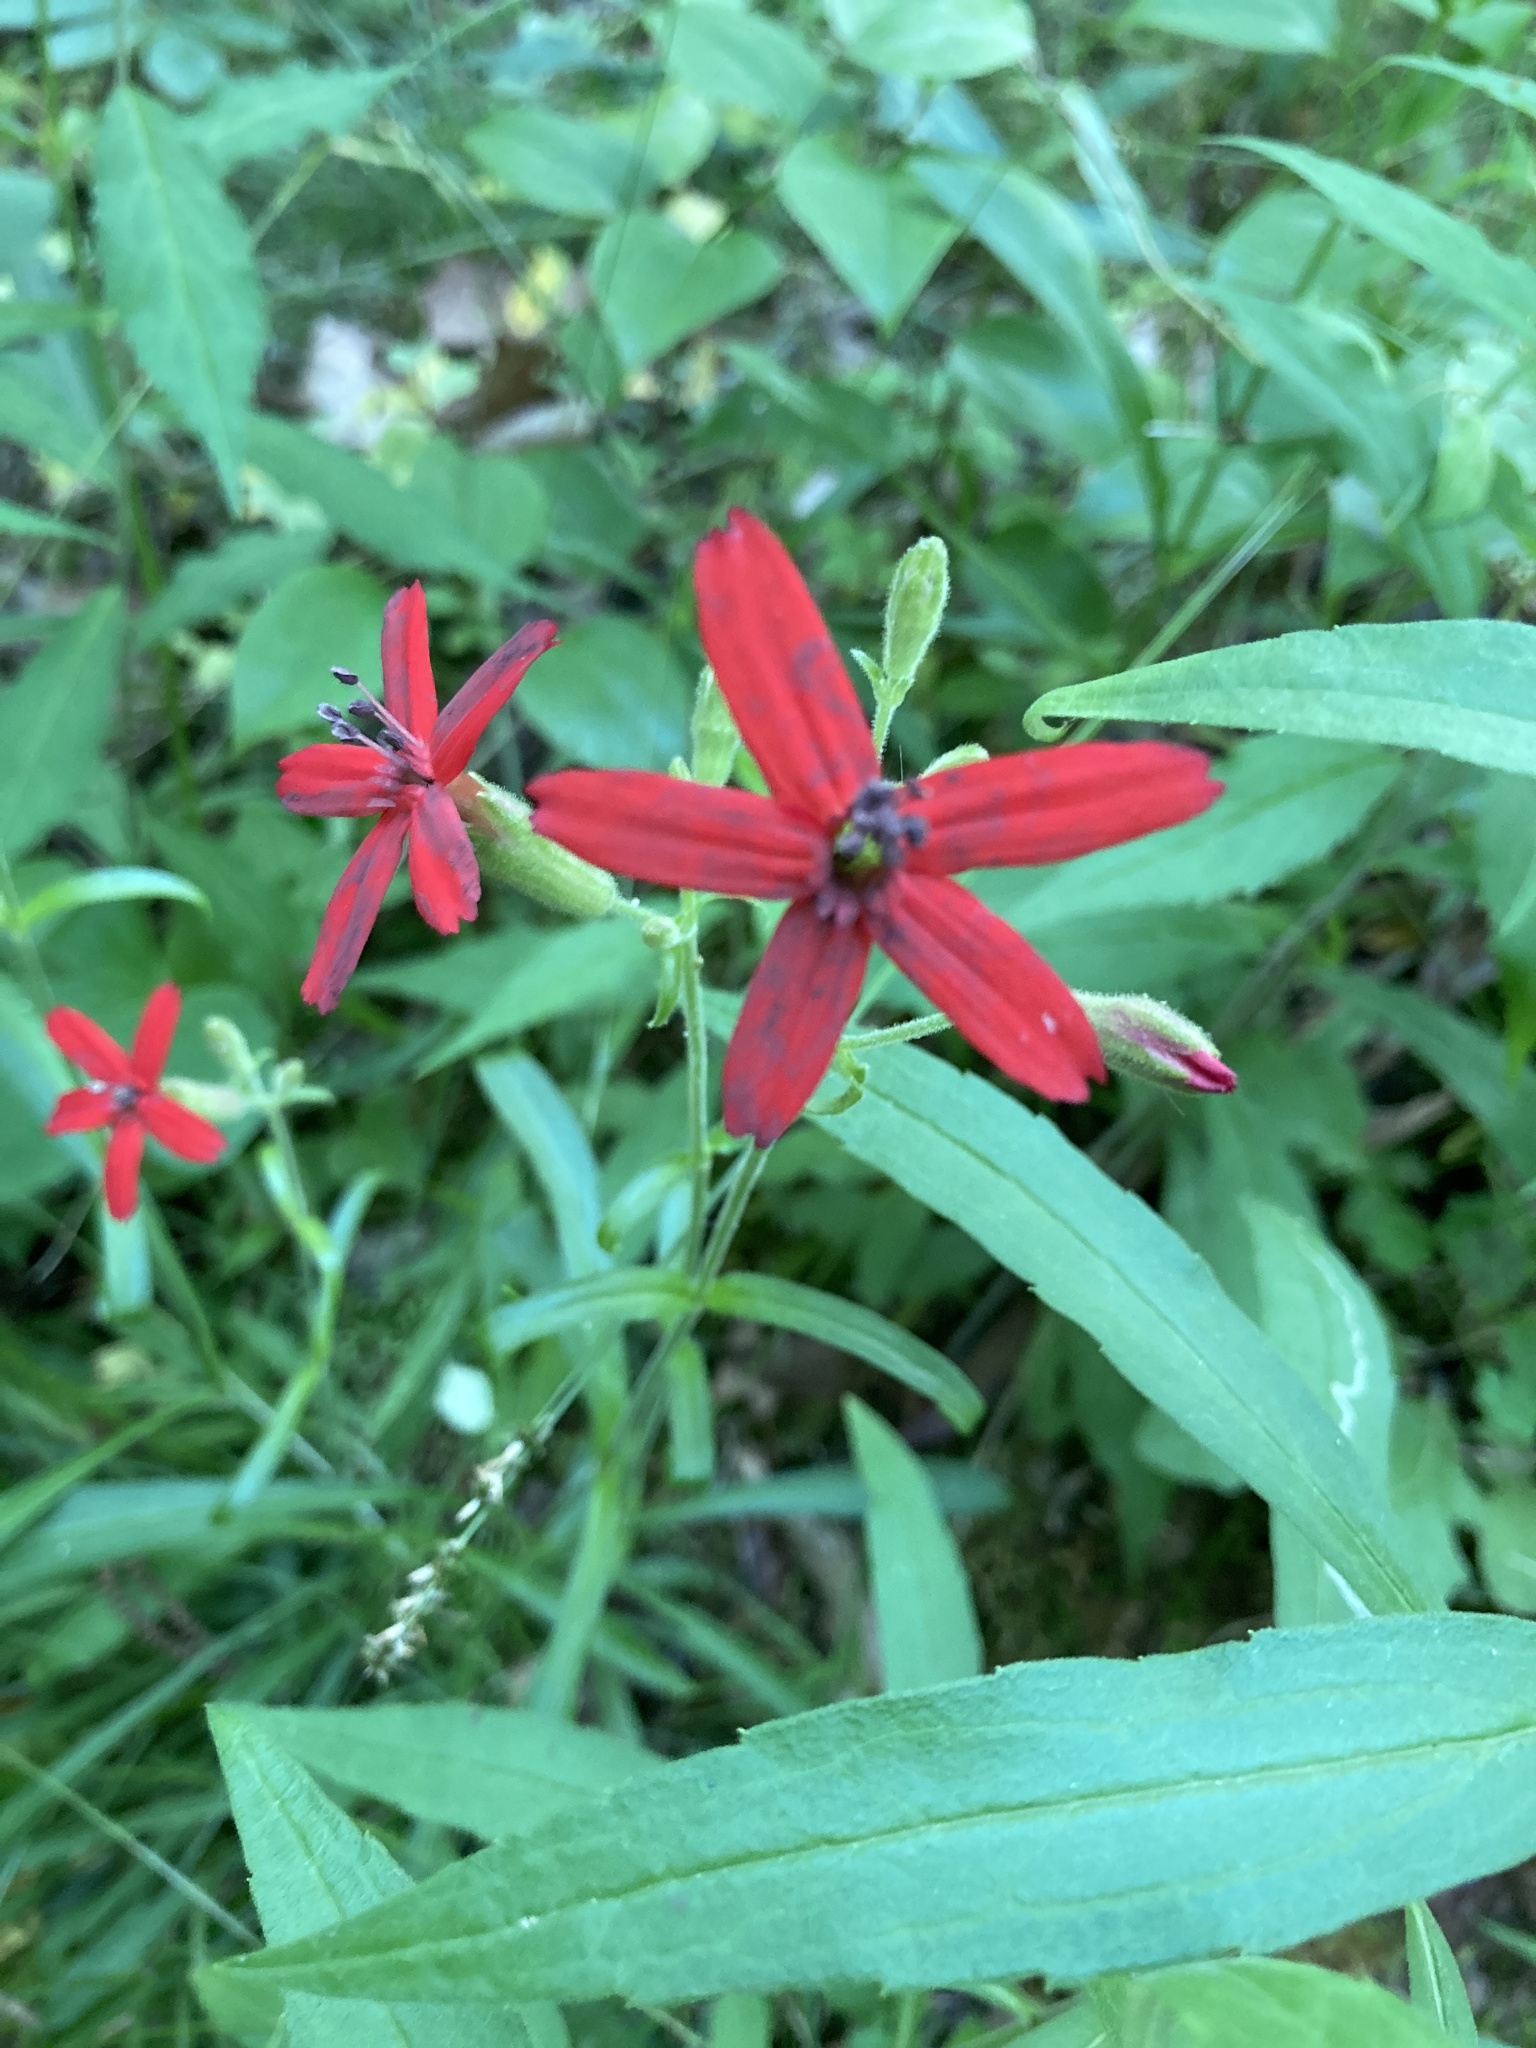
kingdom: Plantae
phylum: Tracheophyta
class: Magnoliopsida
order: Caryophyllales
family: Caryophyllaceae
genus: Silene
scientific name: Silene virginica
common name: Fire-pink
